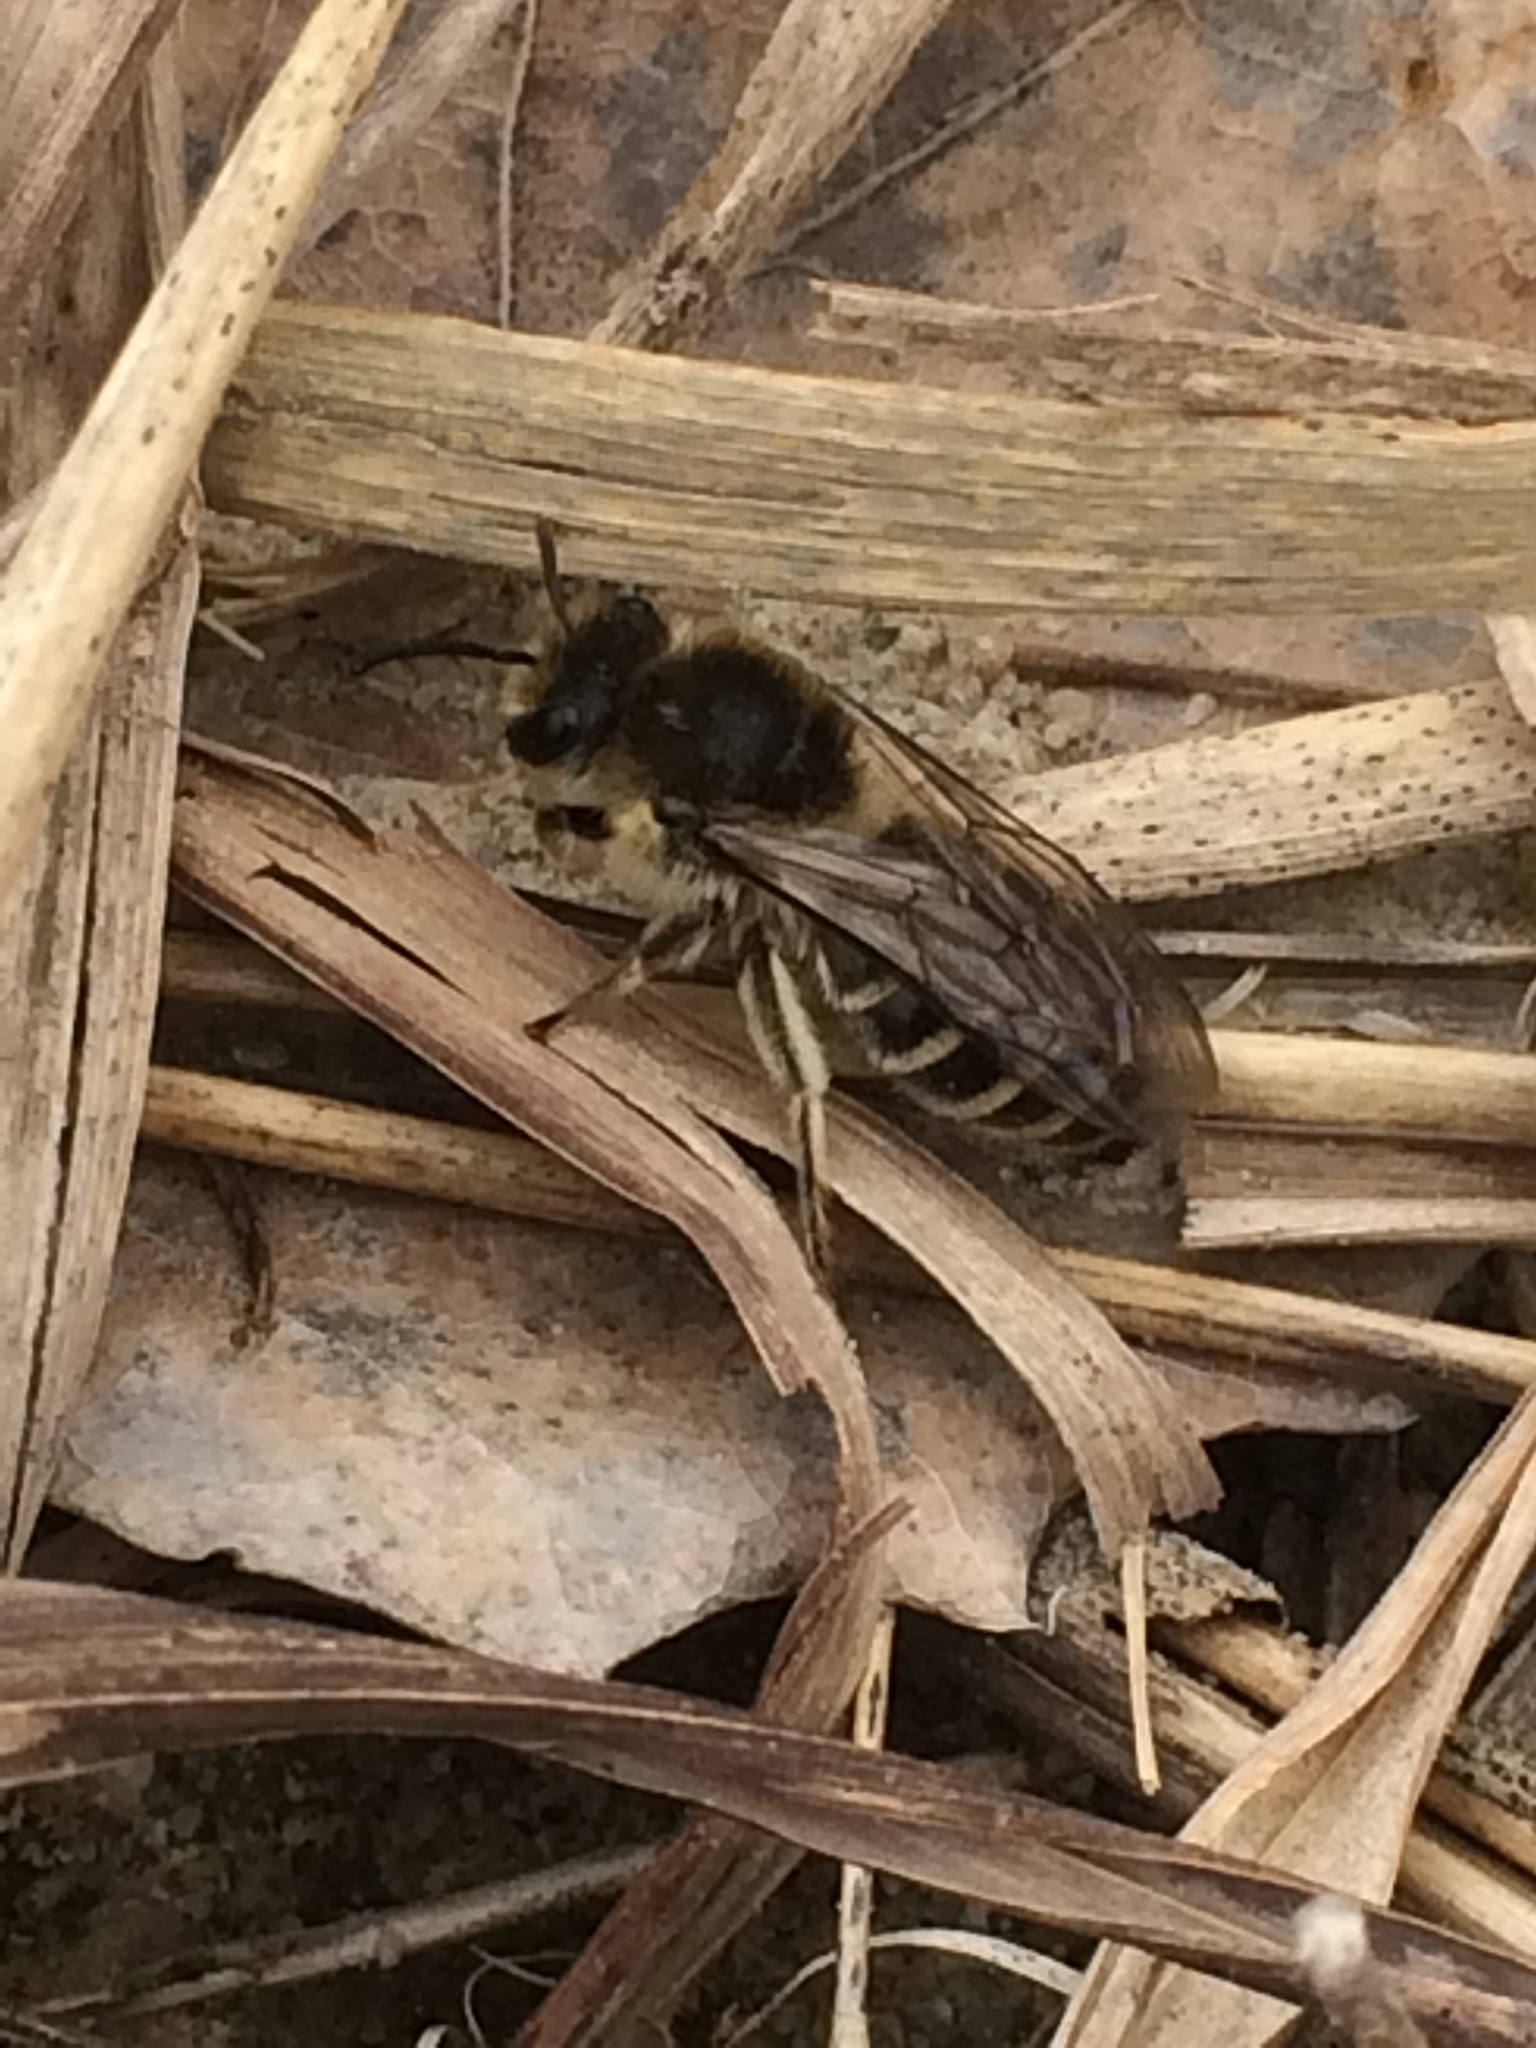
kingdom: Animalia
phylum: Arthropoda
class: Insecta
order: Hymenoptera
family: Colletidae
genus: Colletes
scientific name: Colletes inaequalis
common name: Unequal cellophane bee
